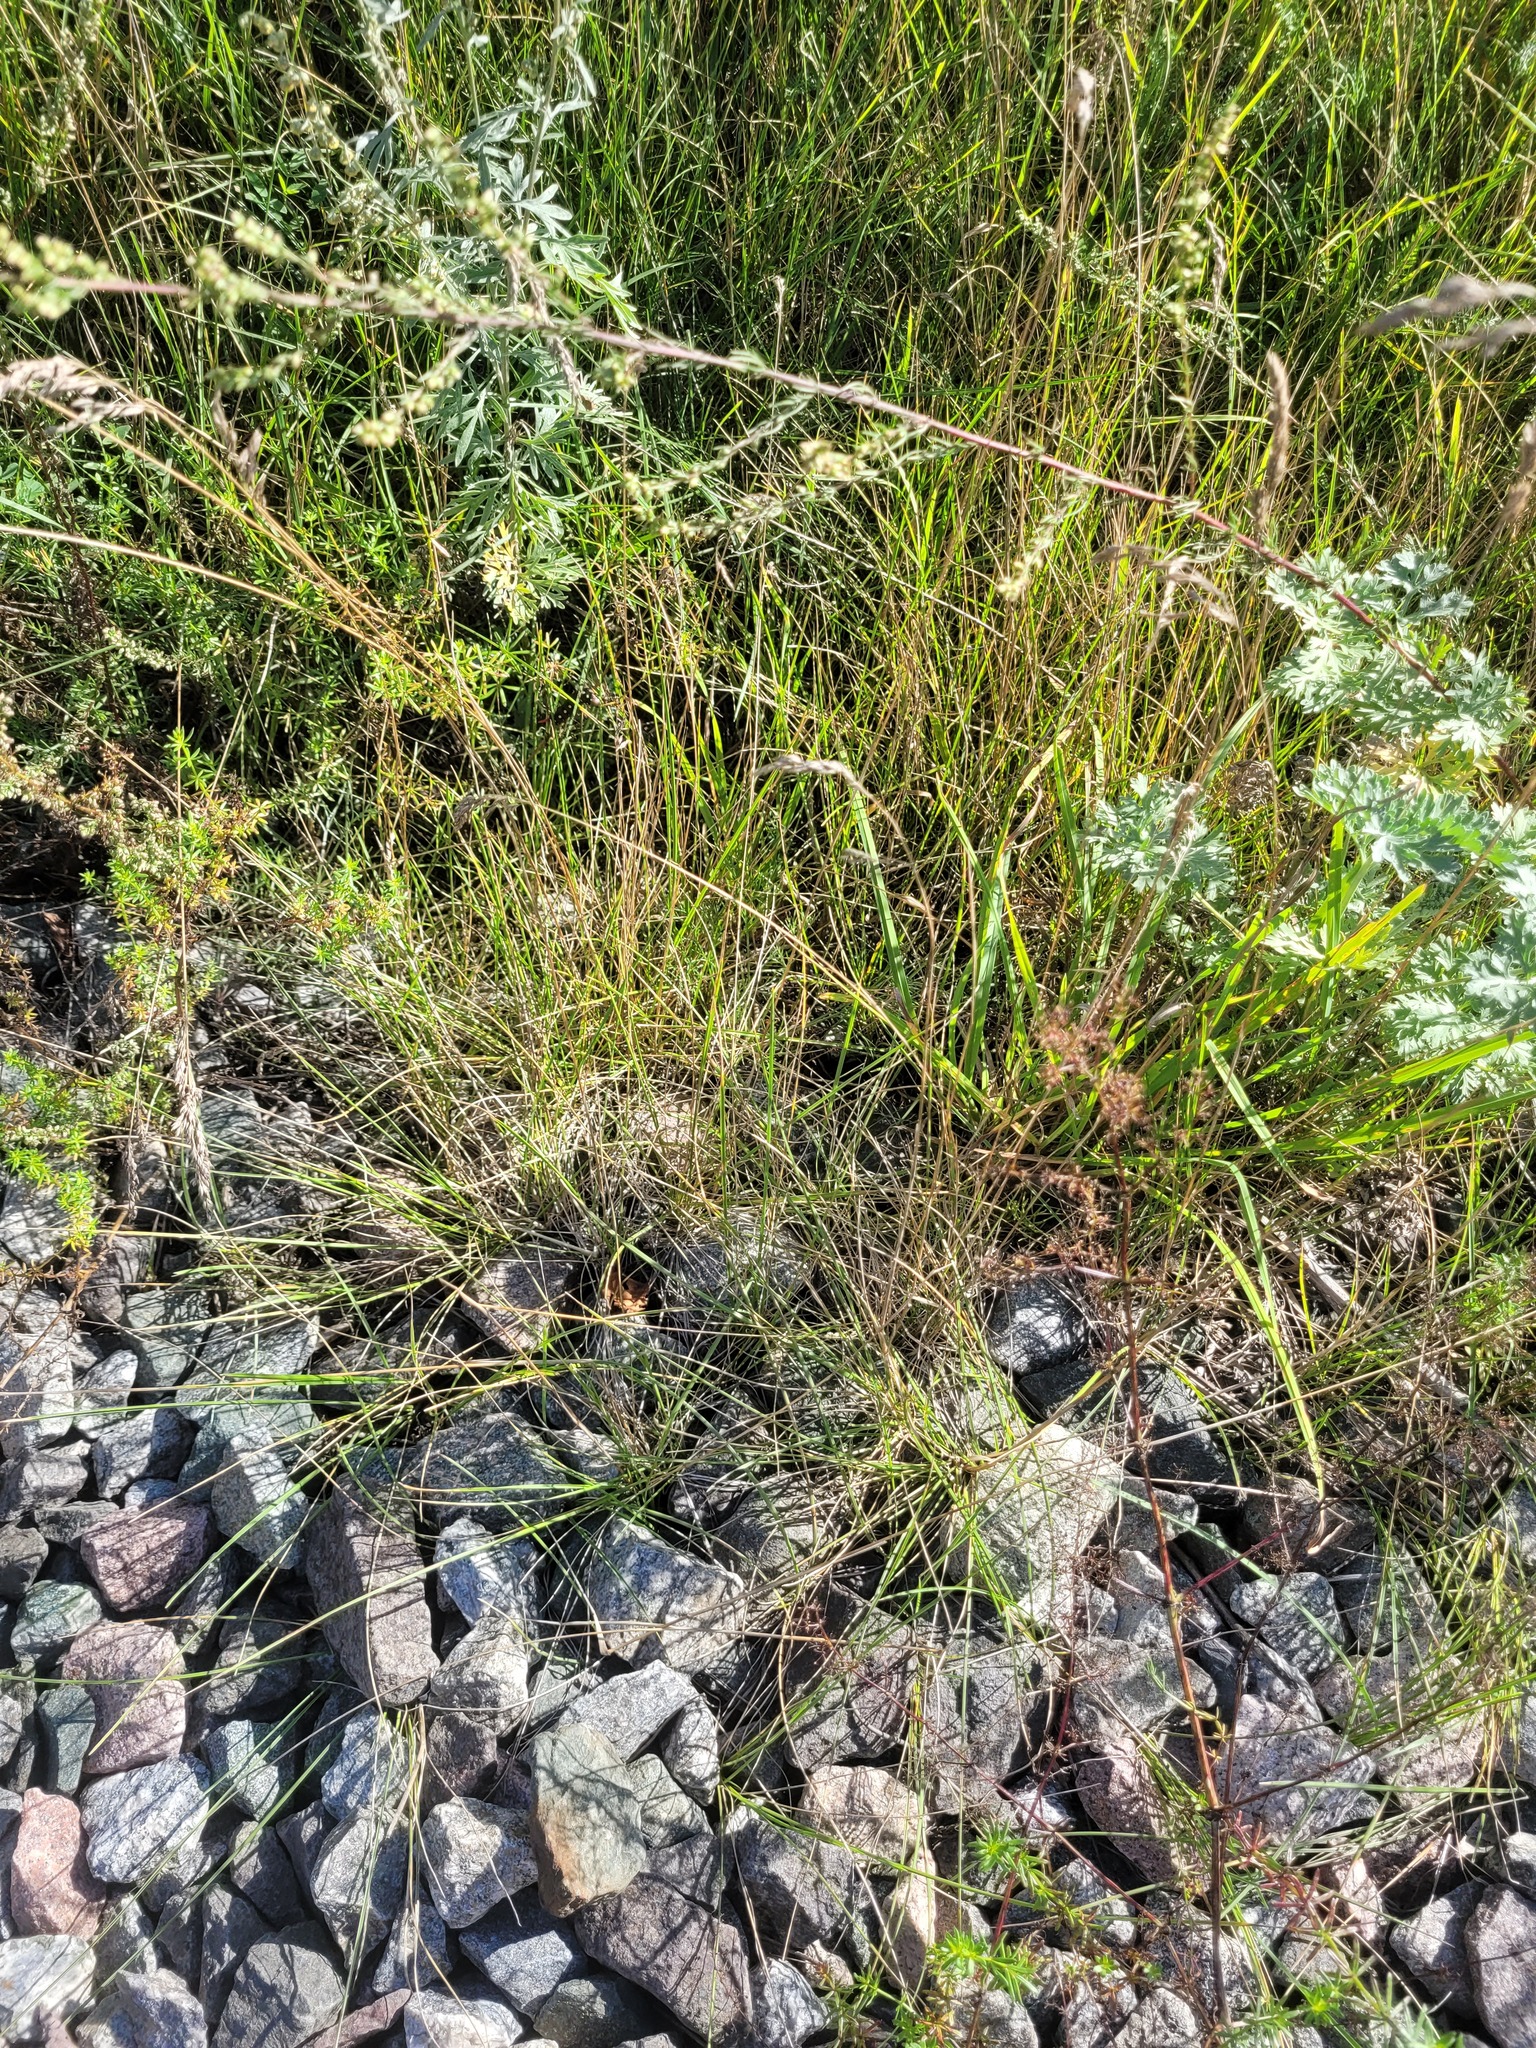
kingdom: Plantae
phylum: Tracheophyta
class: Liliopsida
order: Poales
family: Poaceae
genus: Poa
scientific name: Poa angustifolia
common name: Narrow-leaved meadow-grass
